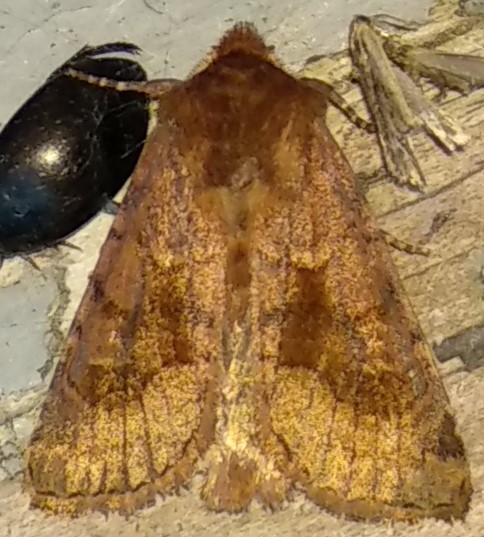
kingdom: Animalia
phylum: Arthropoda
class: Insecta
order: Lepidoptera
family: Noctuidae
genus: Nephelodes
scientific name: Nephelodes minians
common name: Bronzed cutworm
